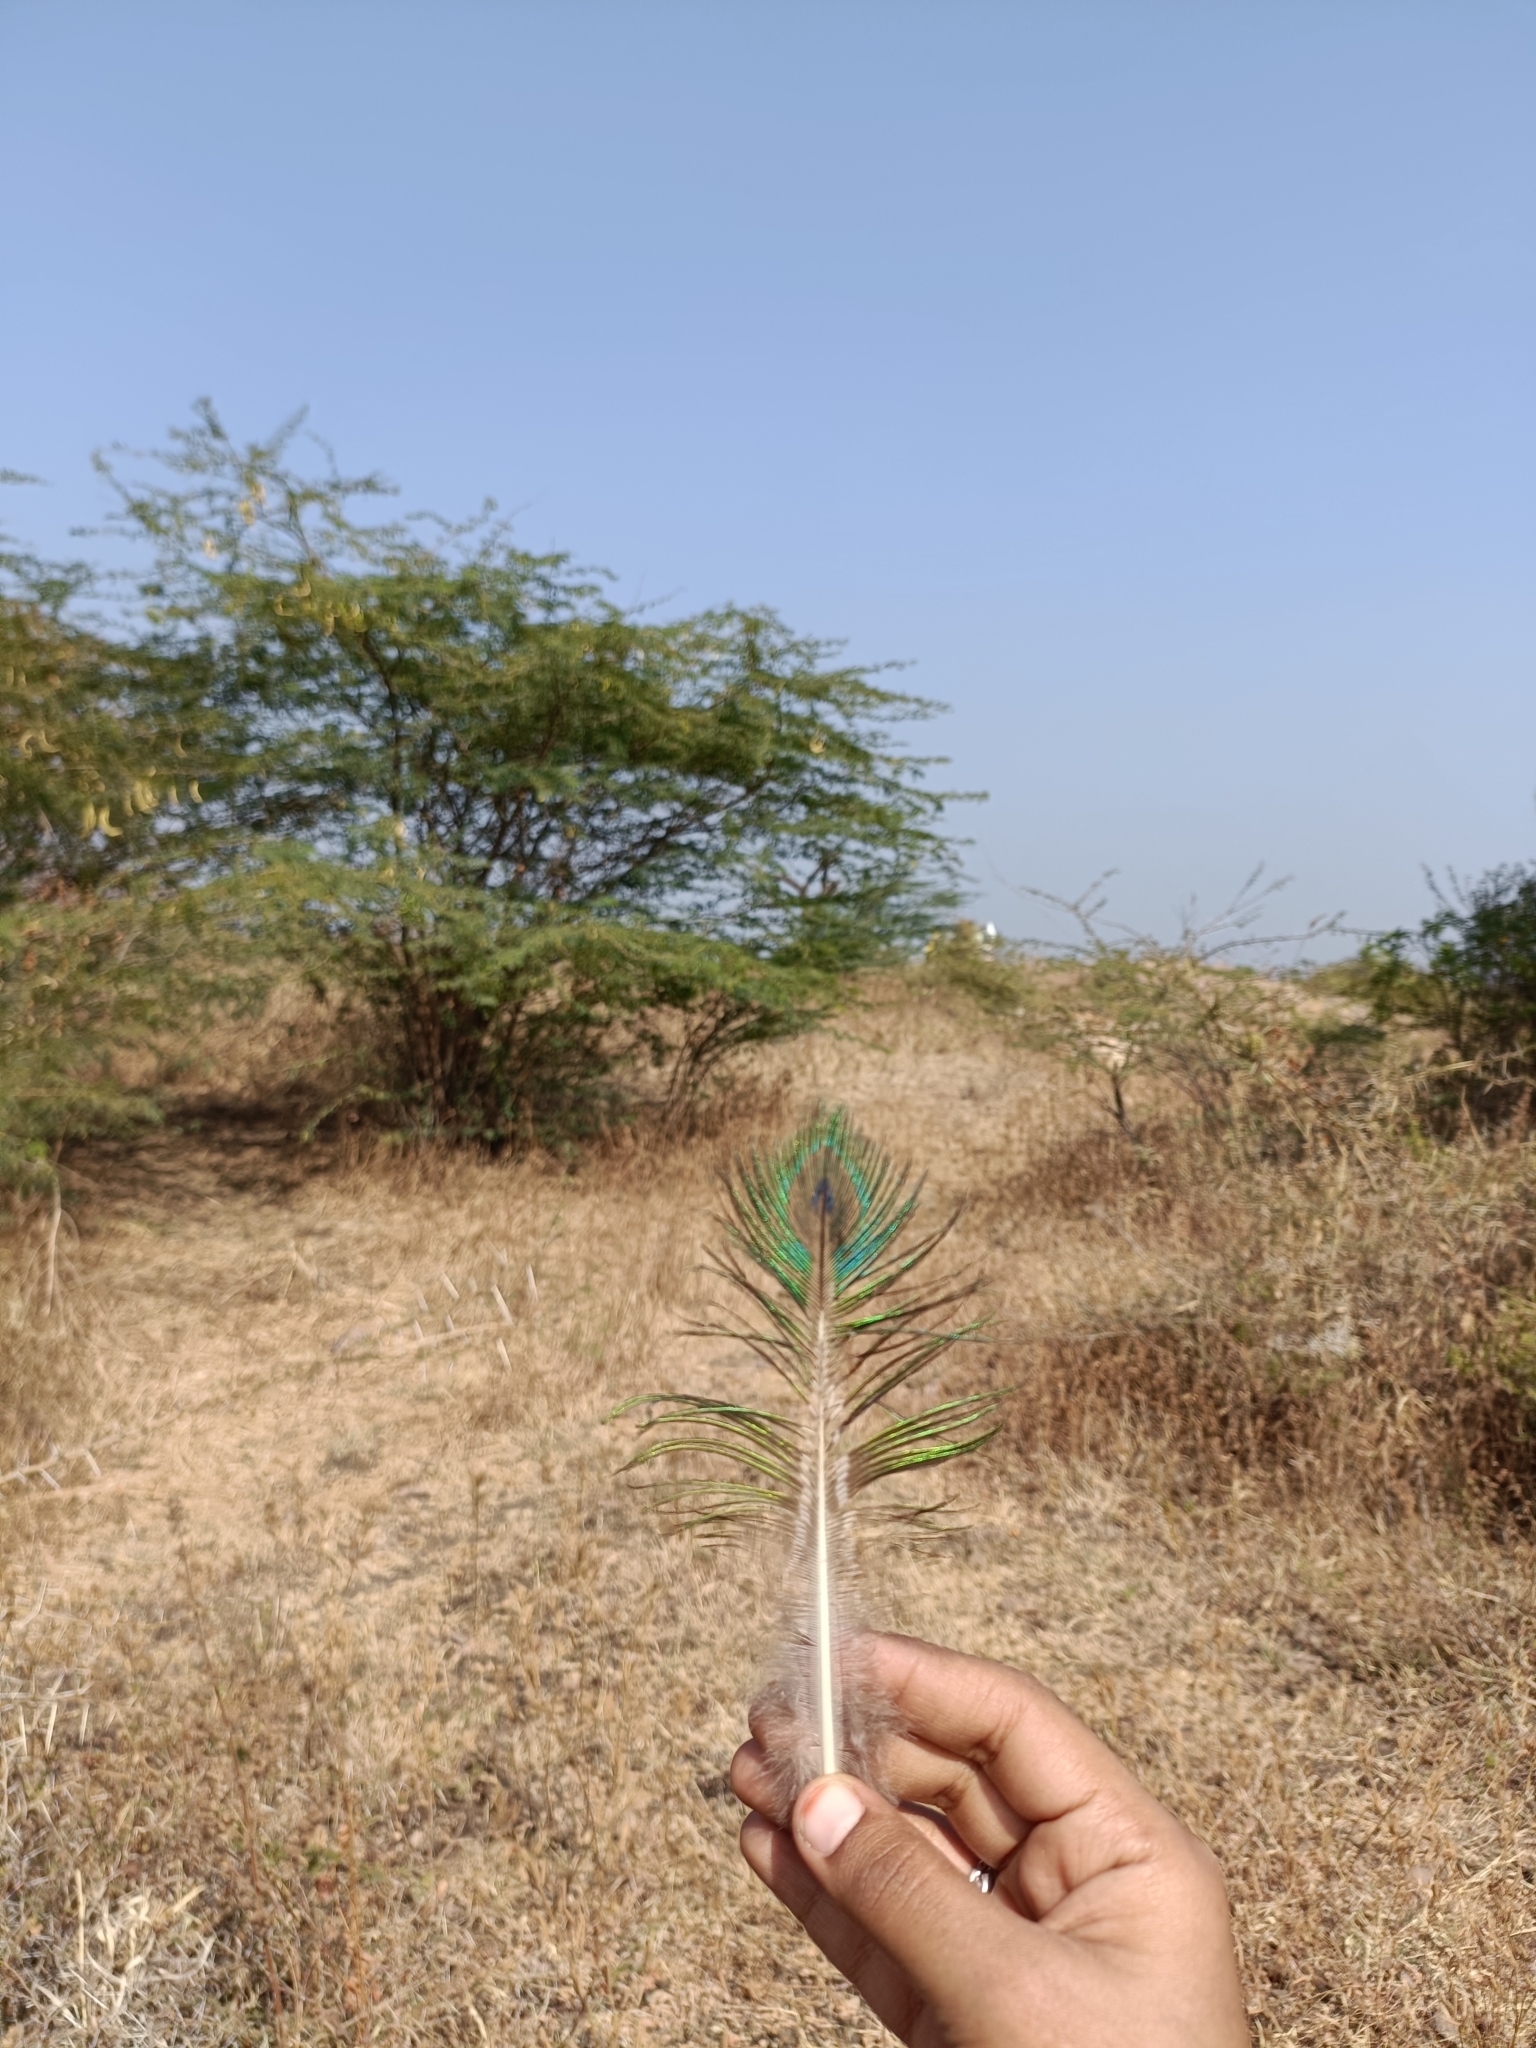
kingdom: Animalia
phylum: Chordata
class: Aves
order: Galliformes
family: Phasianidae
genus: Pavo
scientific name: Pavo cristatus
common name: Indian peafowl
